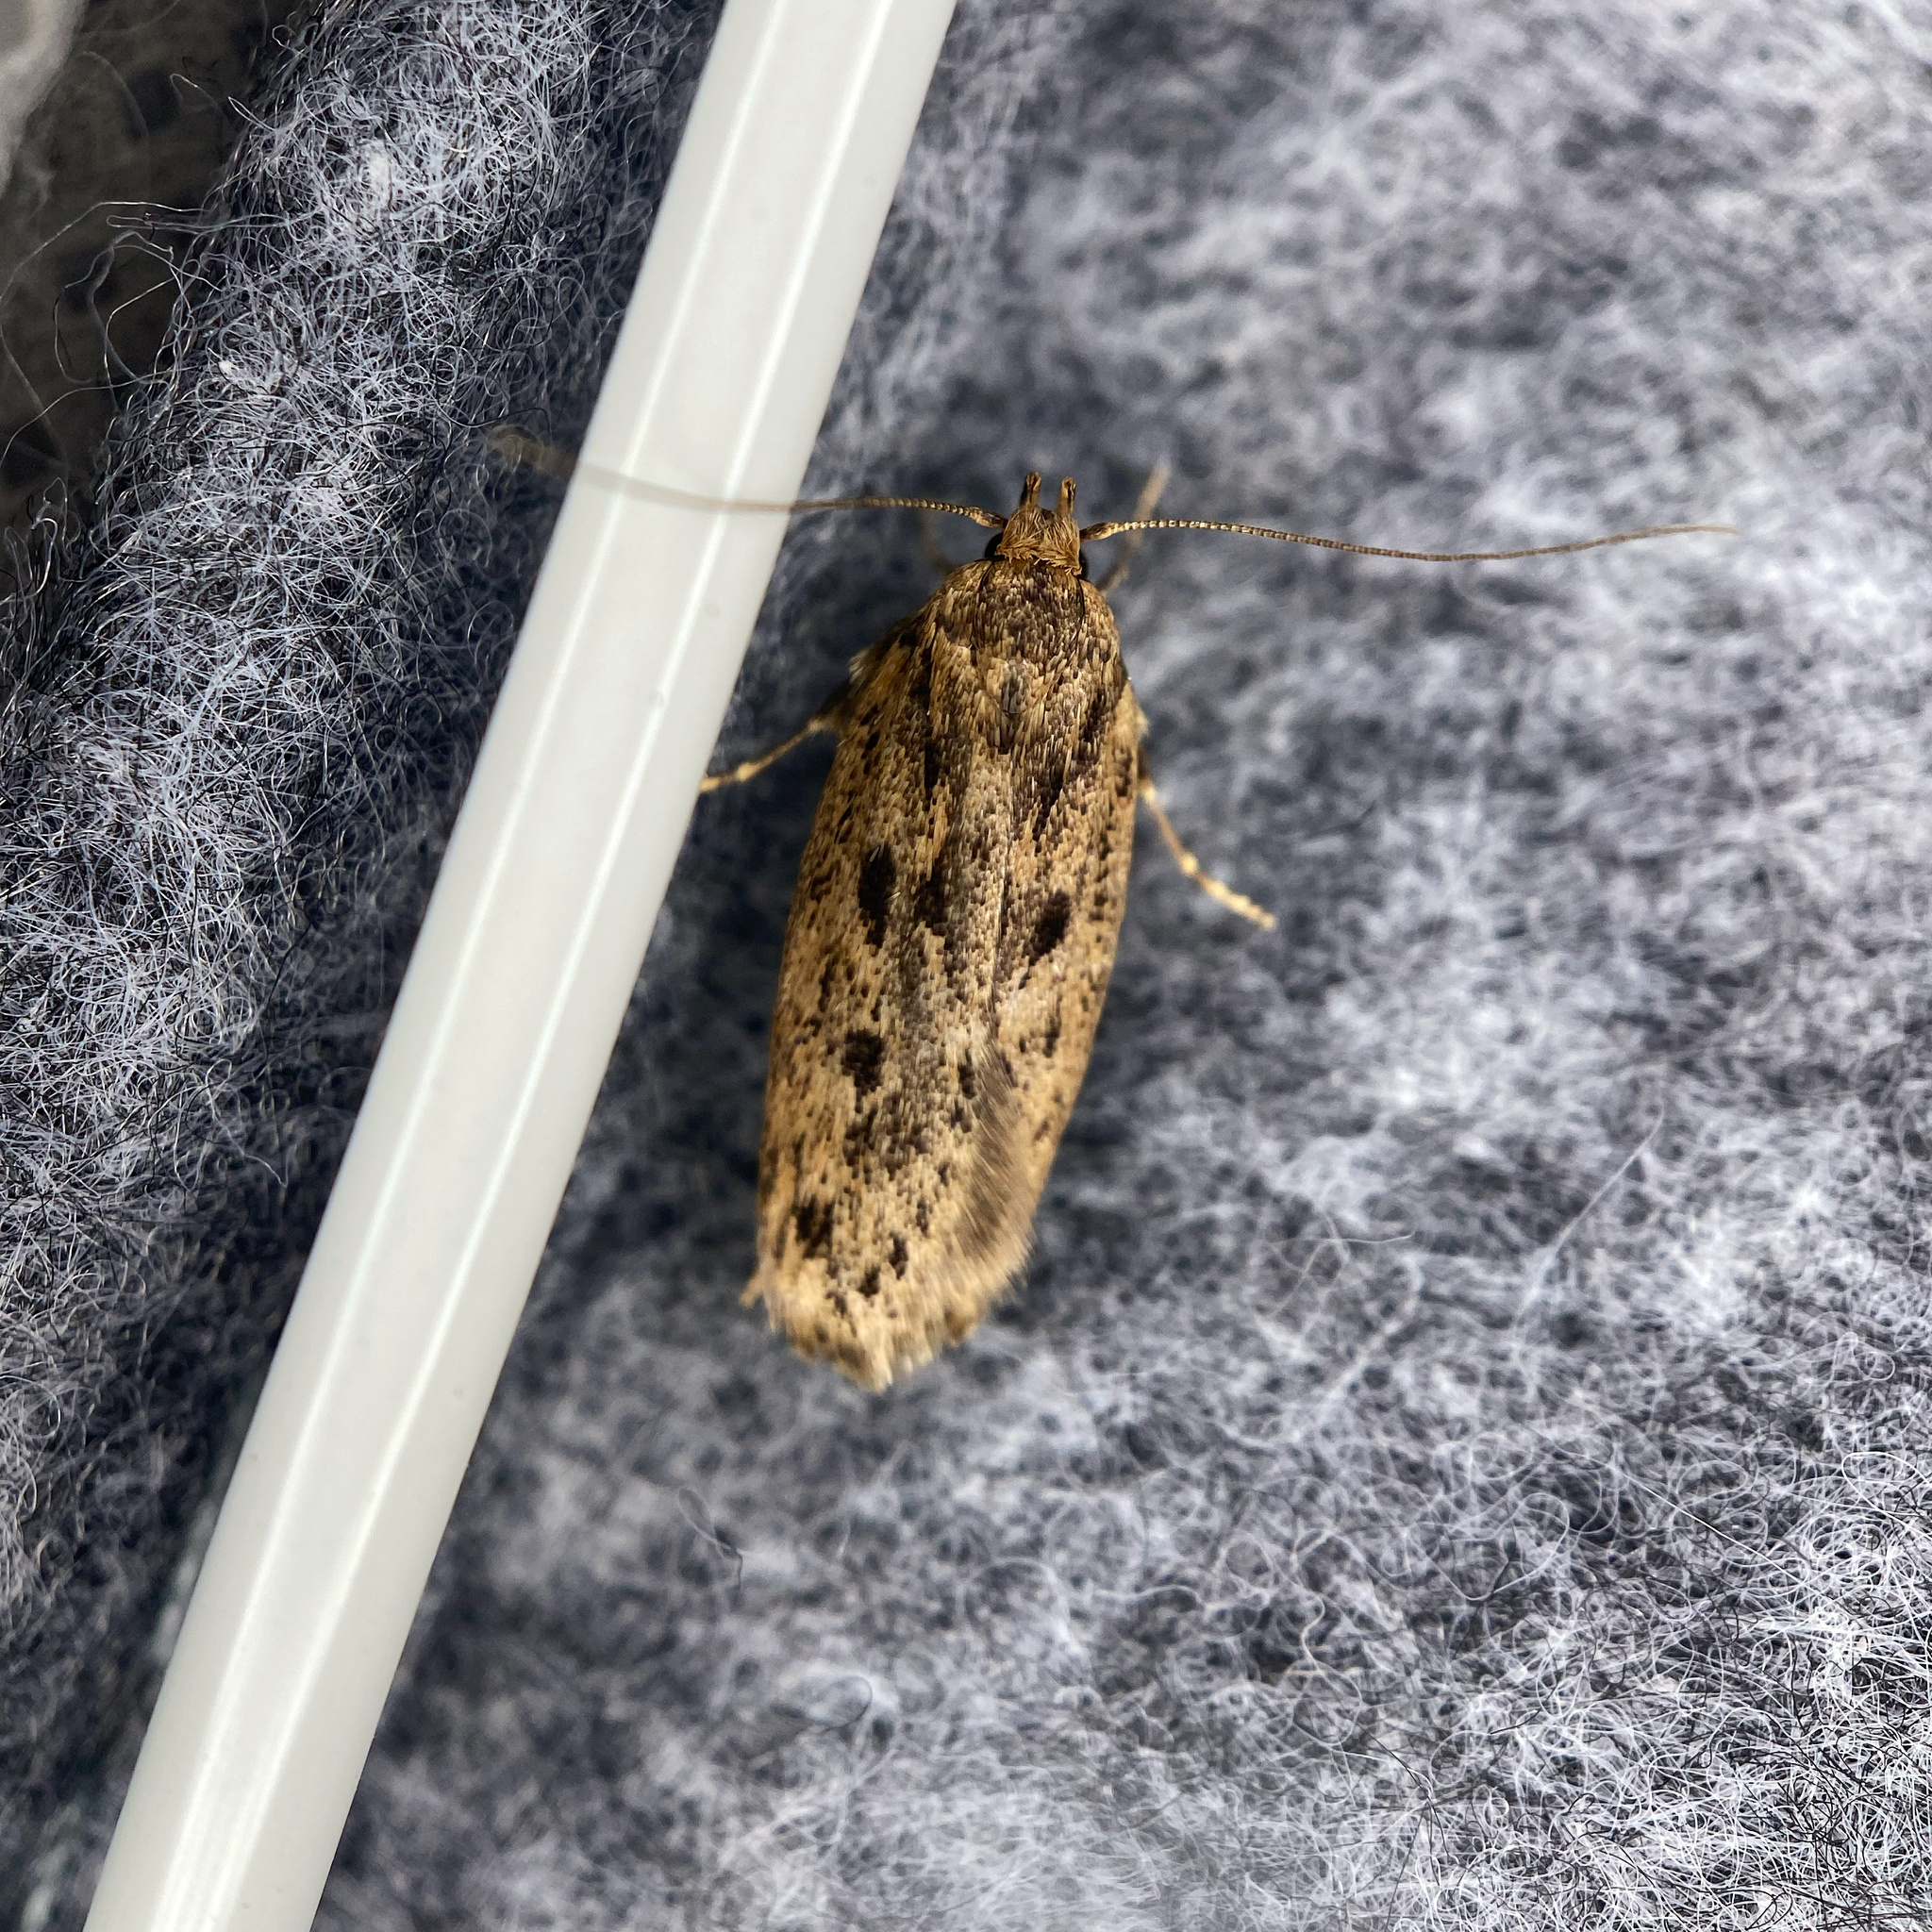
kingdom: Animalia
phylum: Arthropoda
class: Insecta
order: Lepidoptera
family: Oecophoridae
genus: Hofmannophila
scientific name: Hofmannophila pseudospretella
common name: Brown house moth
